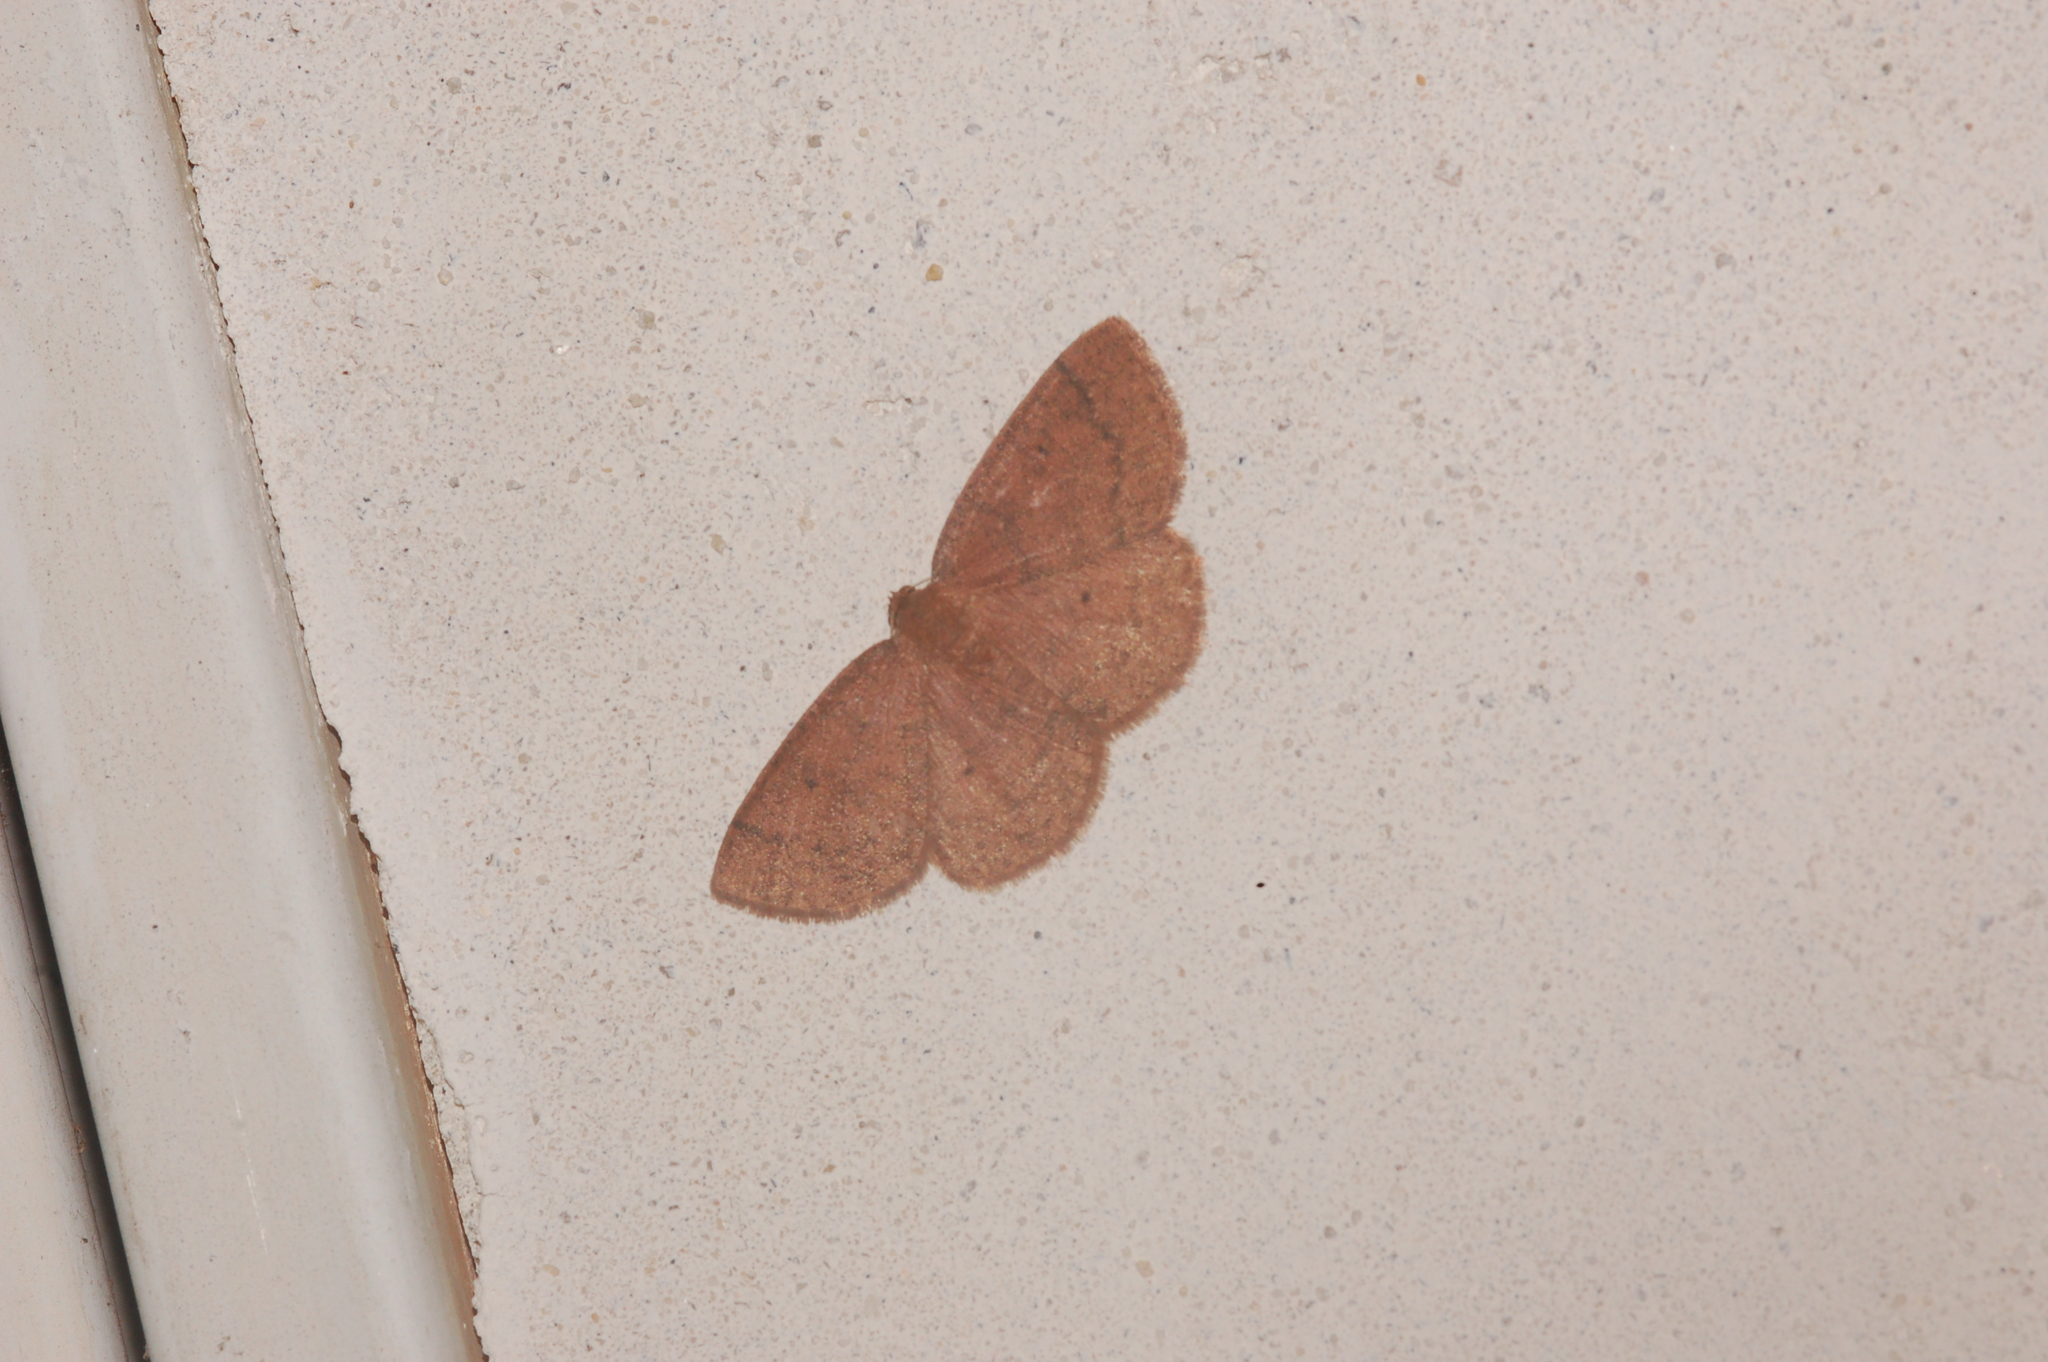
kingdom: Animalia
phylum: Arthropoda
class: Insecta
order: Lepidoptera
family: Geometridae
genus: Ilexia
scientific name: Ilexia intractata
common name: Black-dotted ruddy moth
